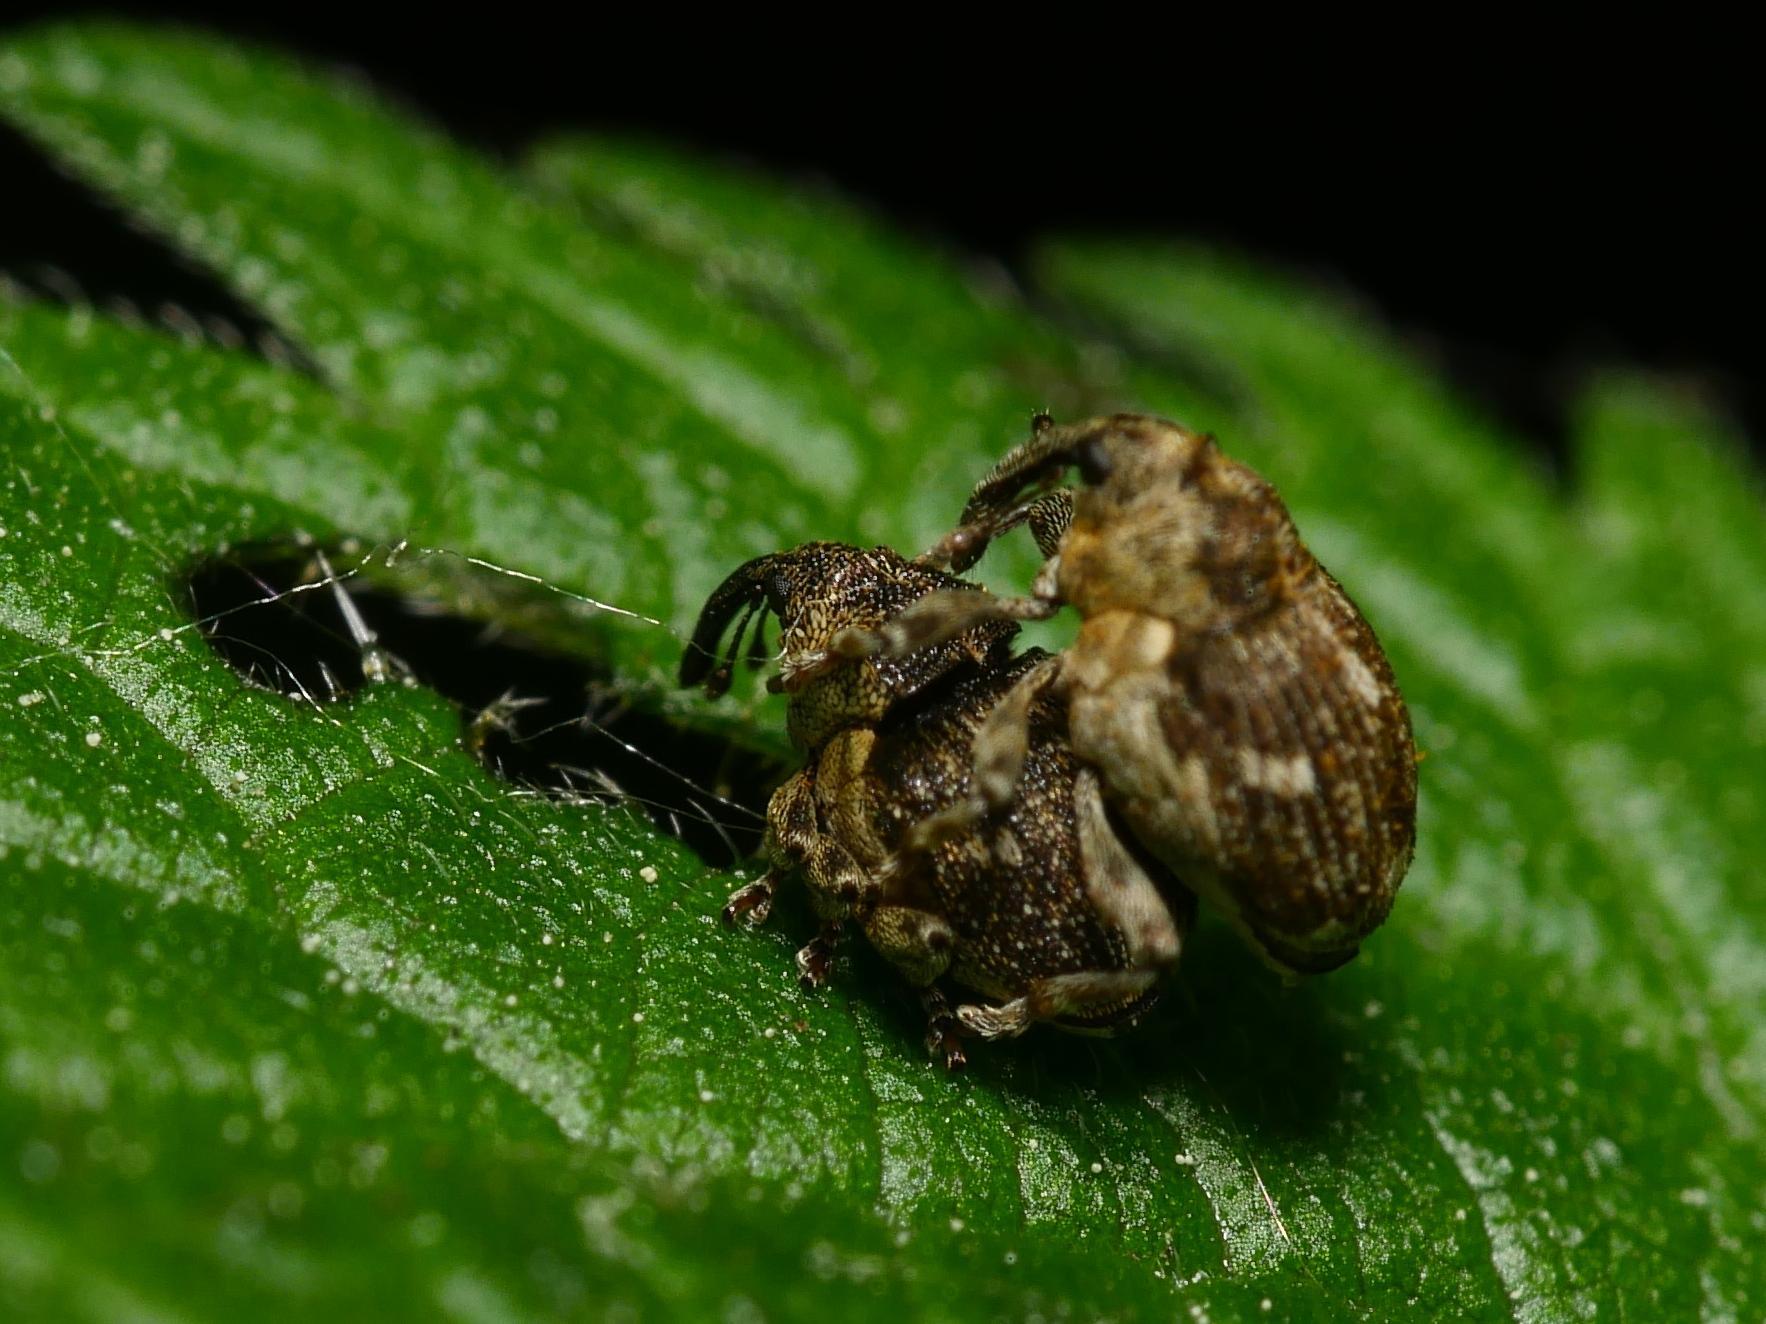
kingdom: Animalia
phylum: Arthropoda
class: Insecta
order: Coleoptera
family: Curculionidae
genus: Nedyus
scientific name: Nedyus quadrimaculatus
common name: Small nettle weevil
